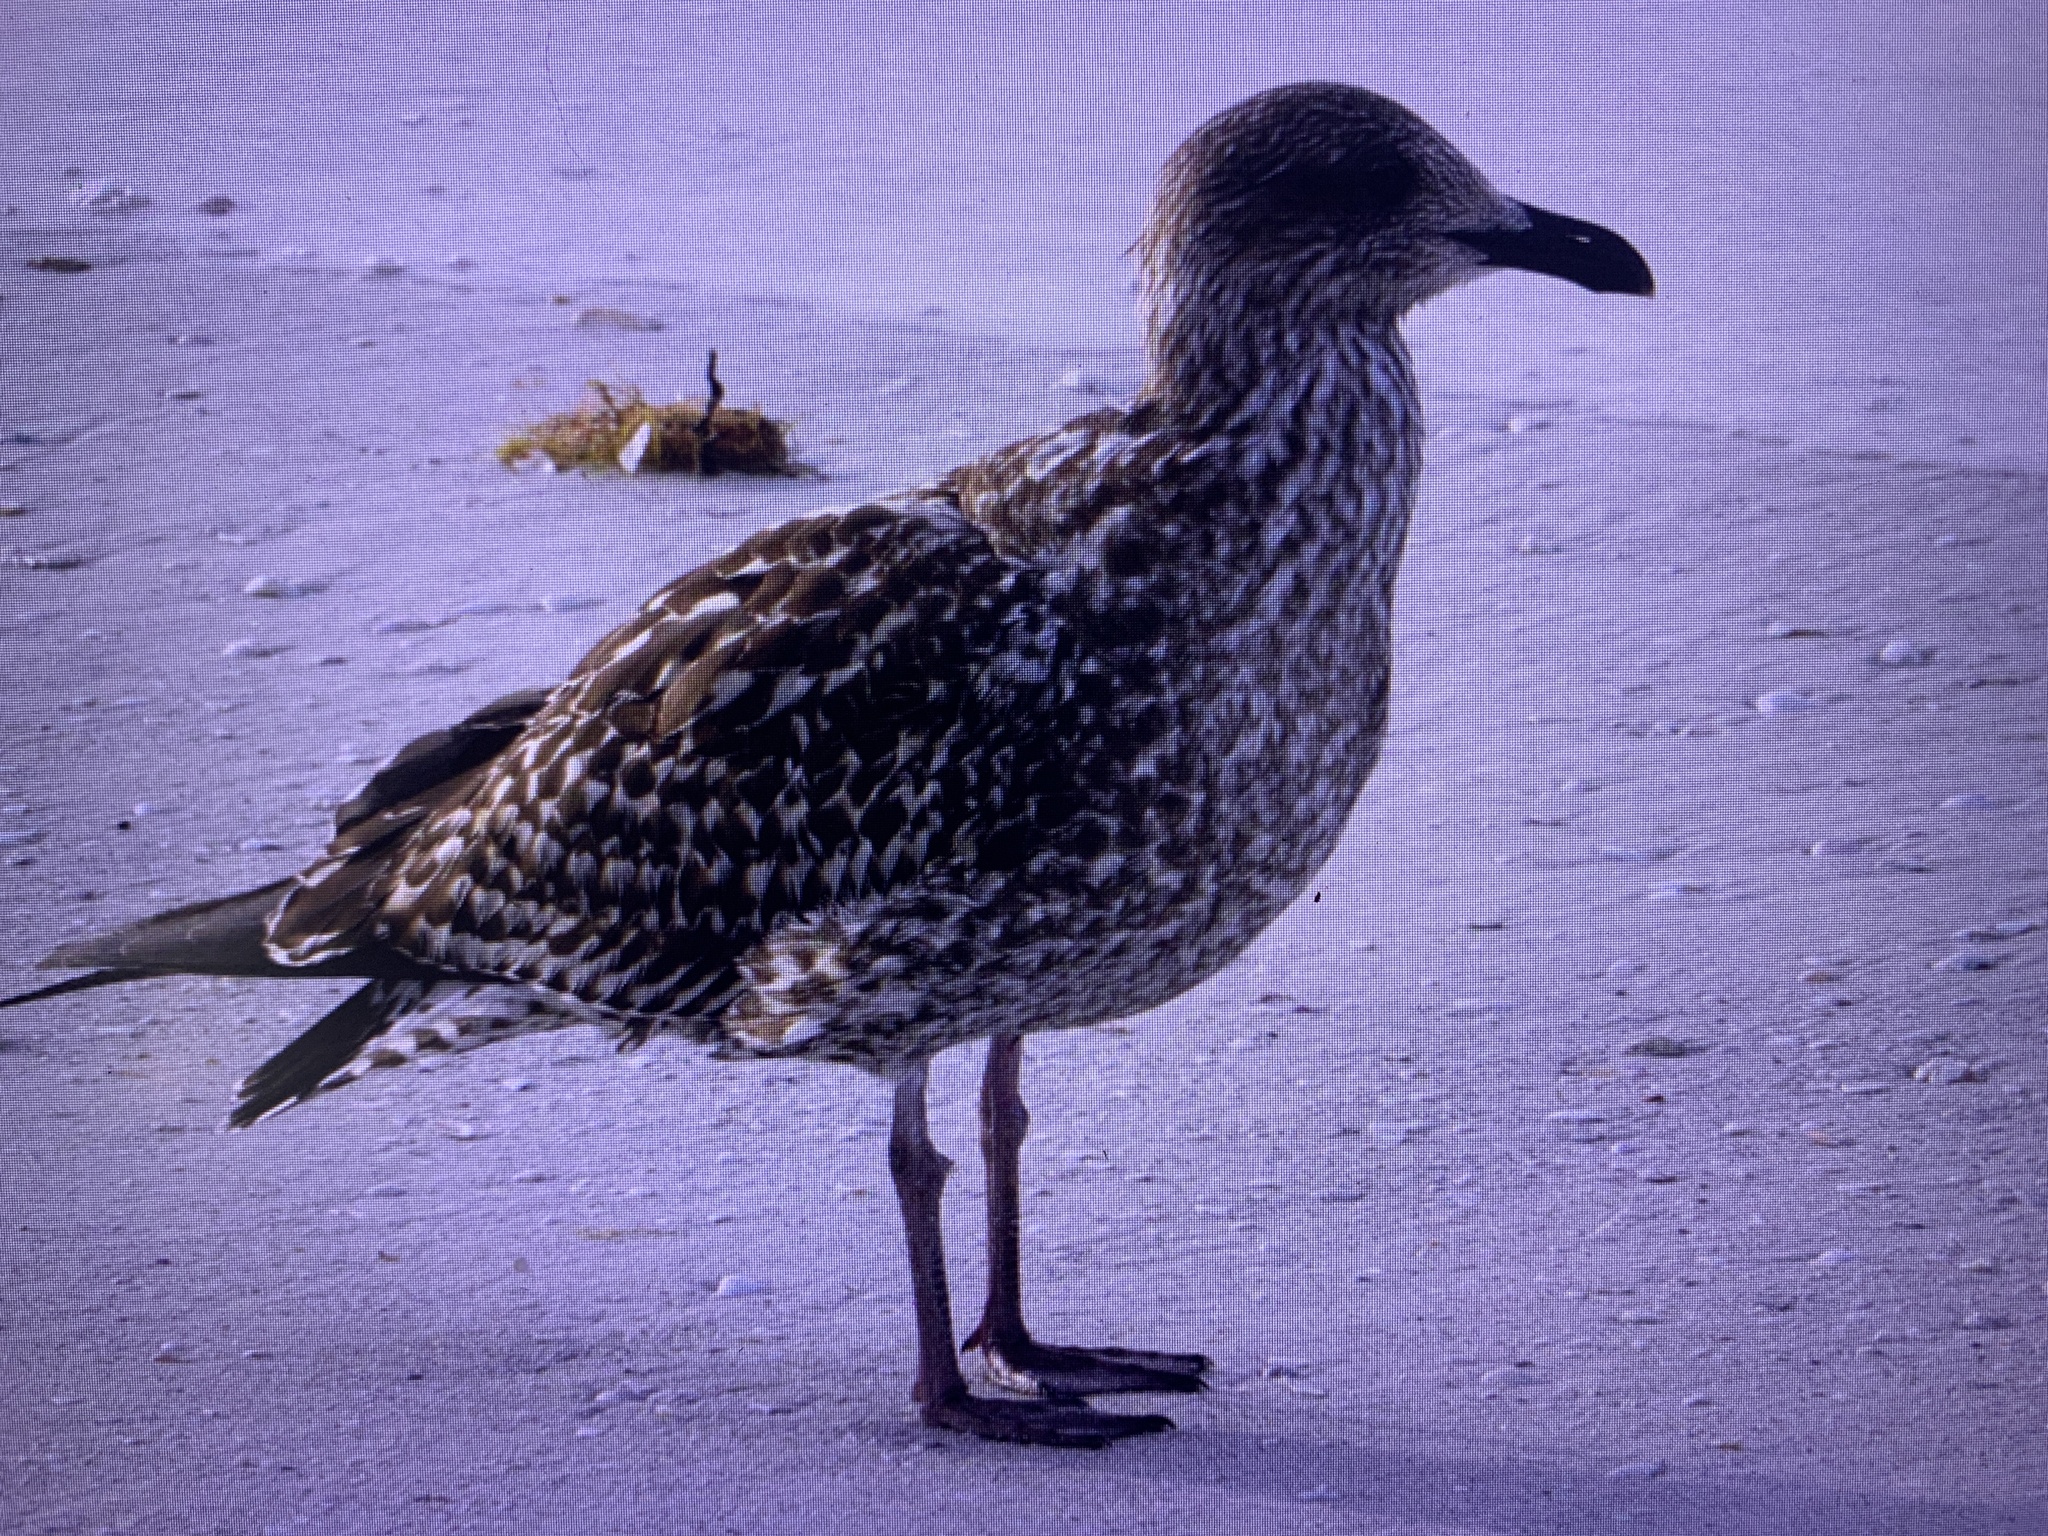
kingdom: Animalia
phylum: Chordata
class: Aves
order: Charadriiformes
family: Laridae
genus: Larus
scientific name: Larus fuscus
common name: Lesser black-backed gull
